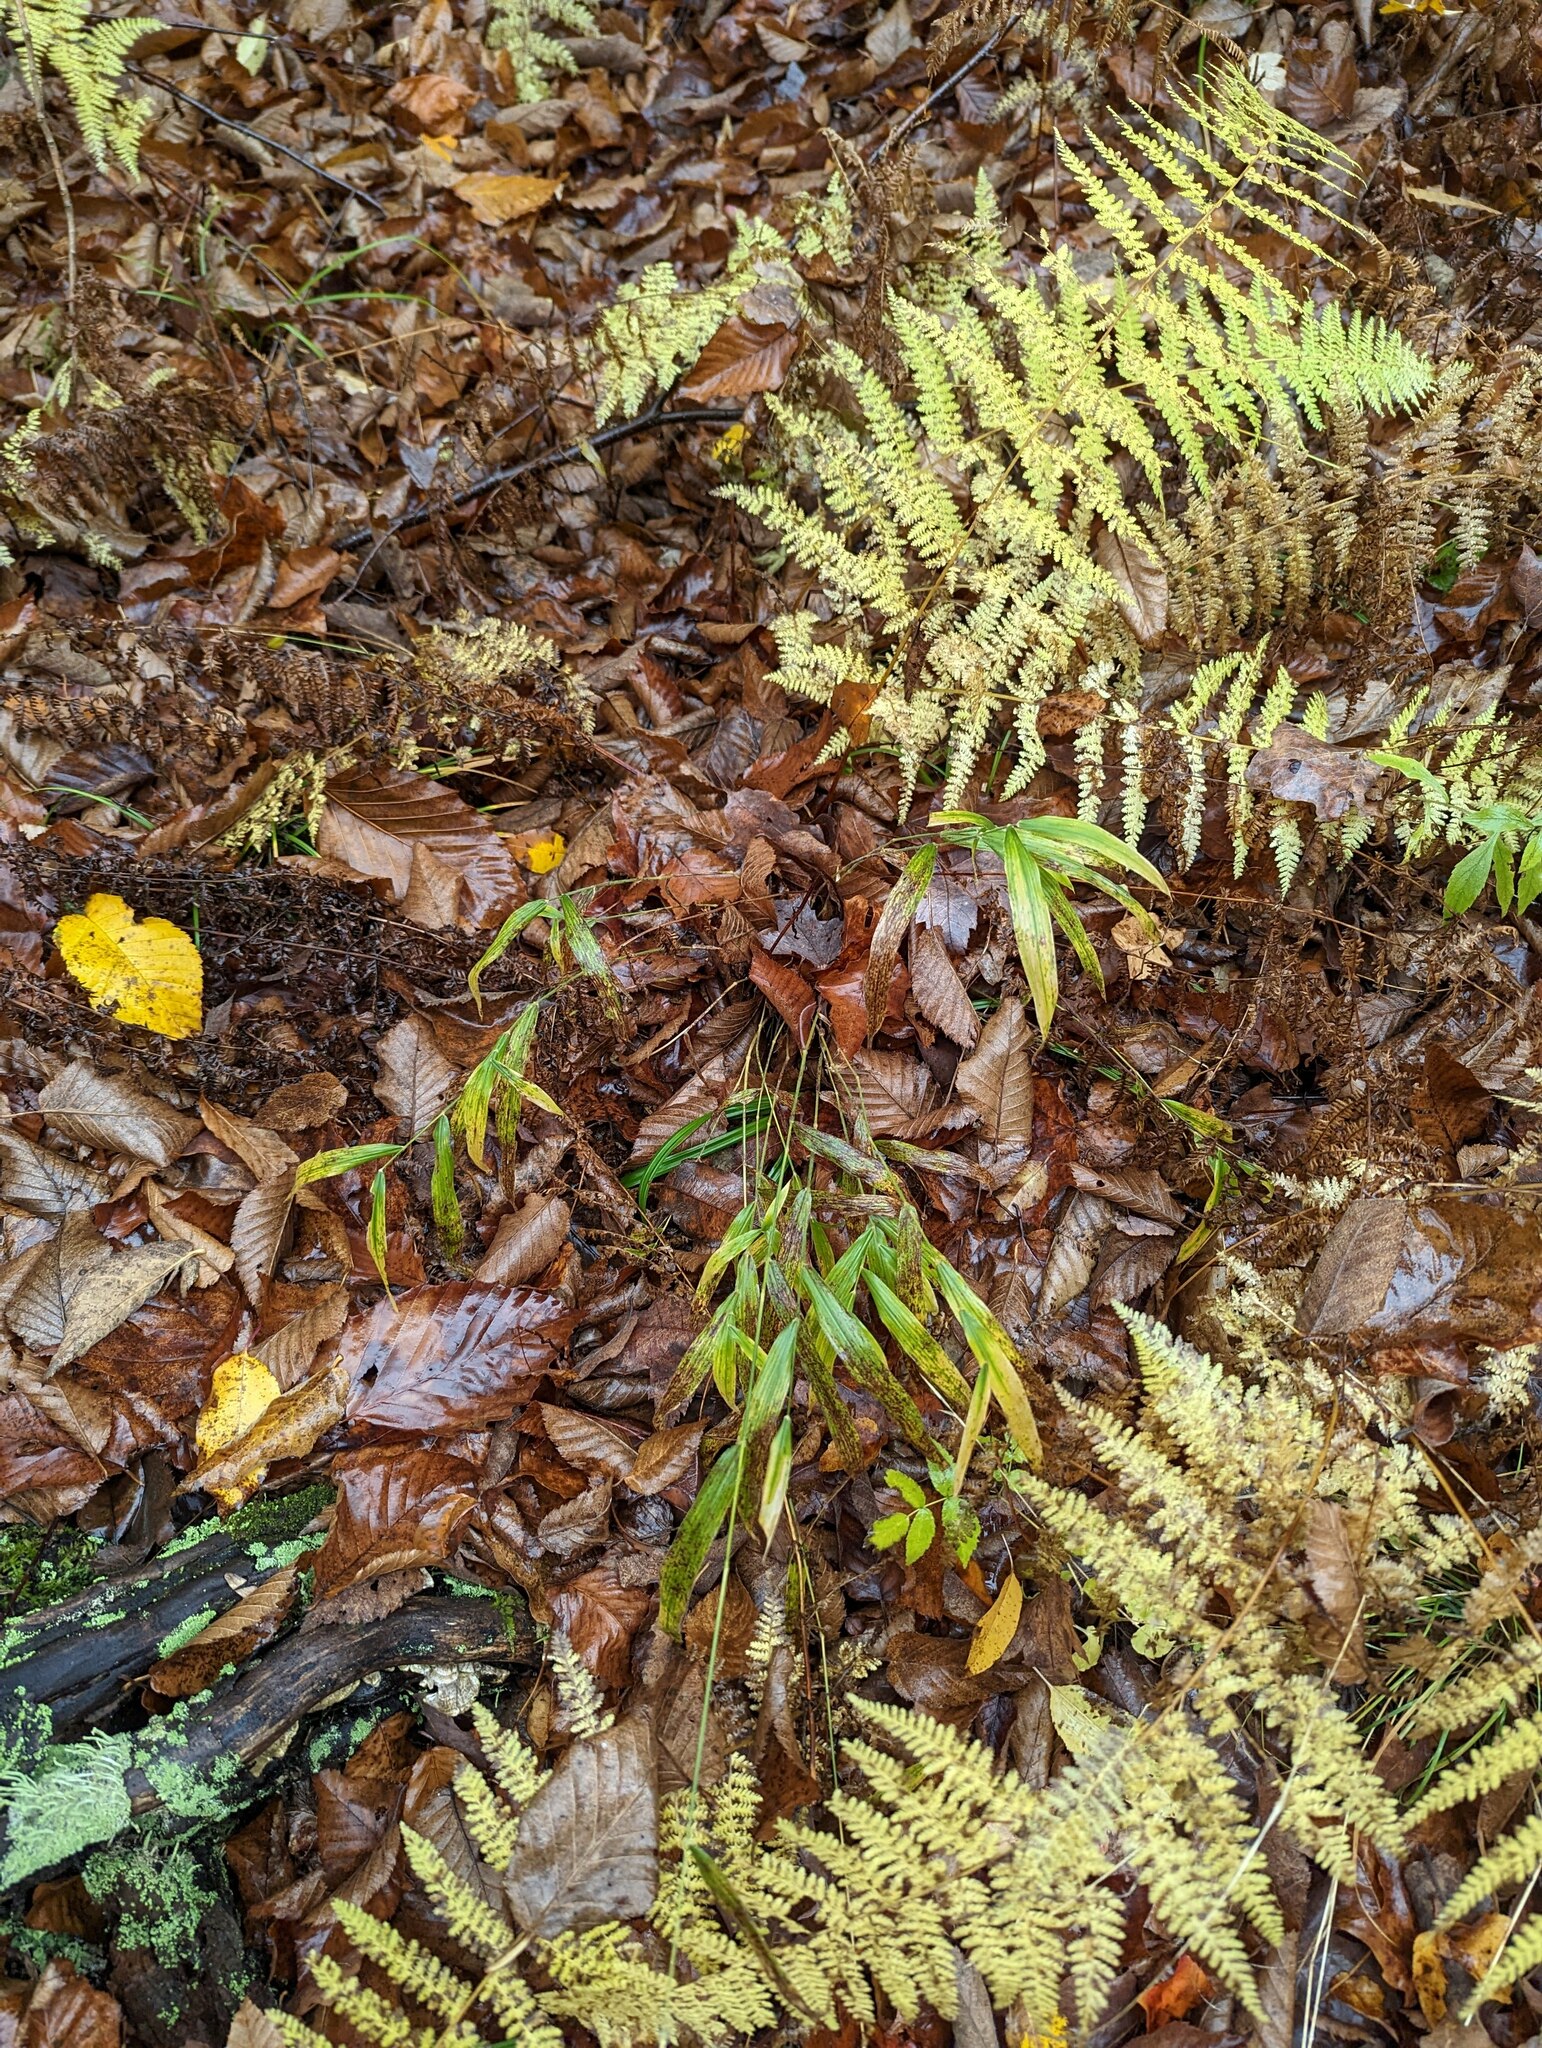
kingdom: Plantae
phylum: Tracheophyta
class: Polypodiopsida
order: Polypodiales
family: Dennstaedtiaceae
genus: Sitobolium
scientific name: Sitobolium punctilobum
